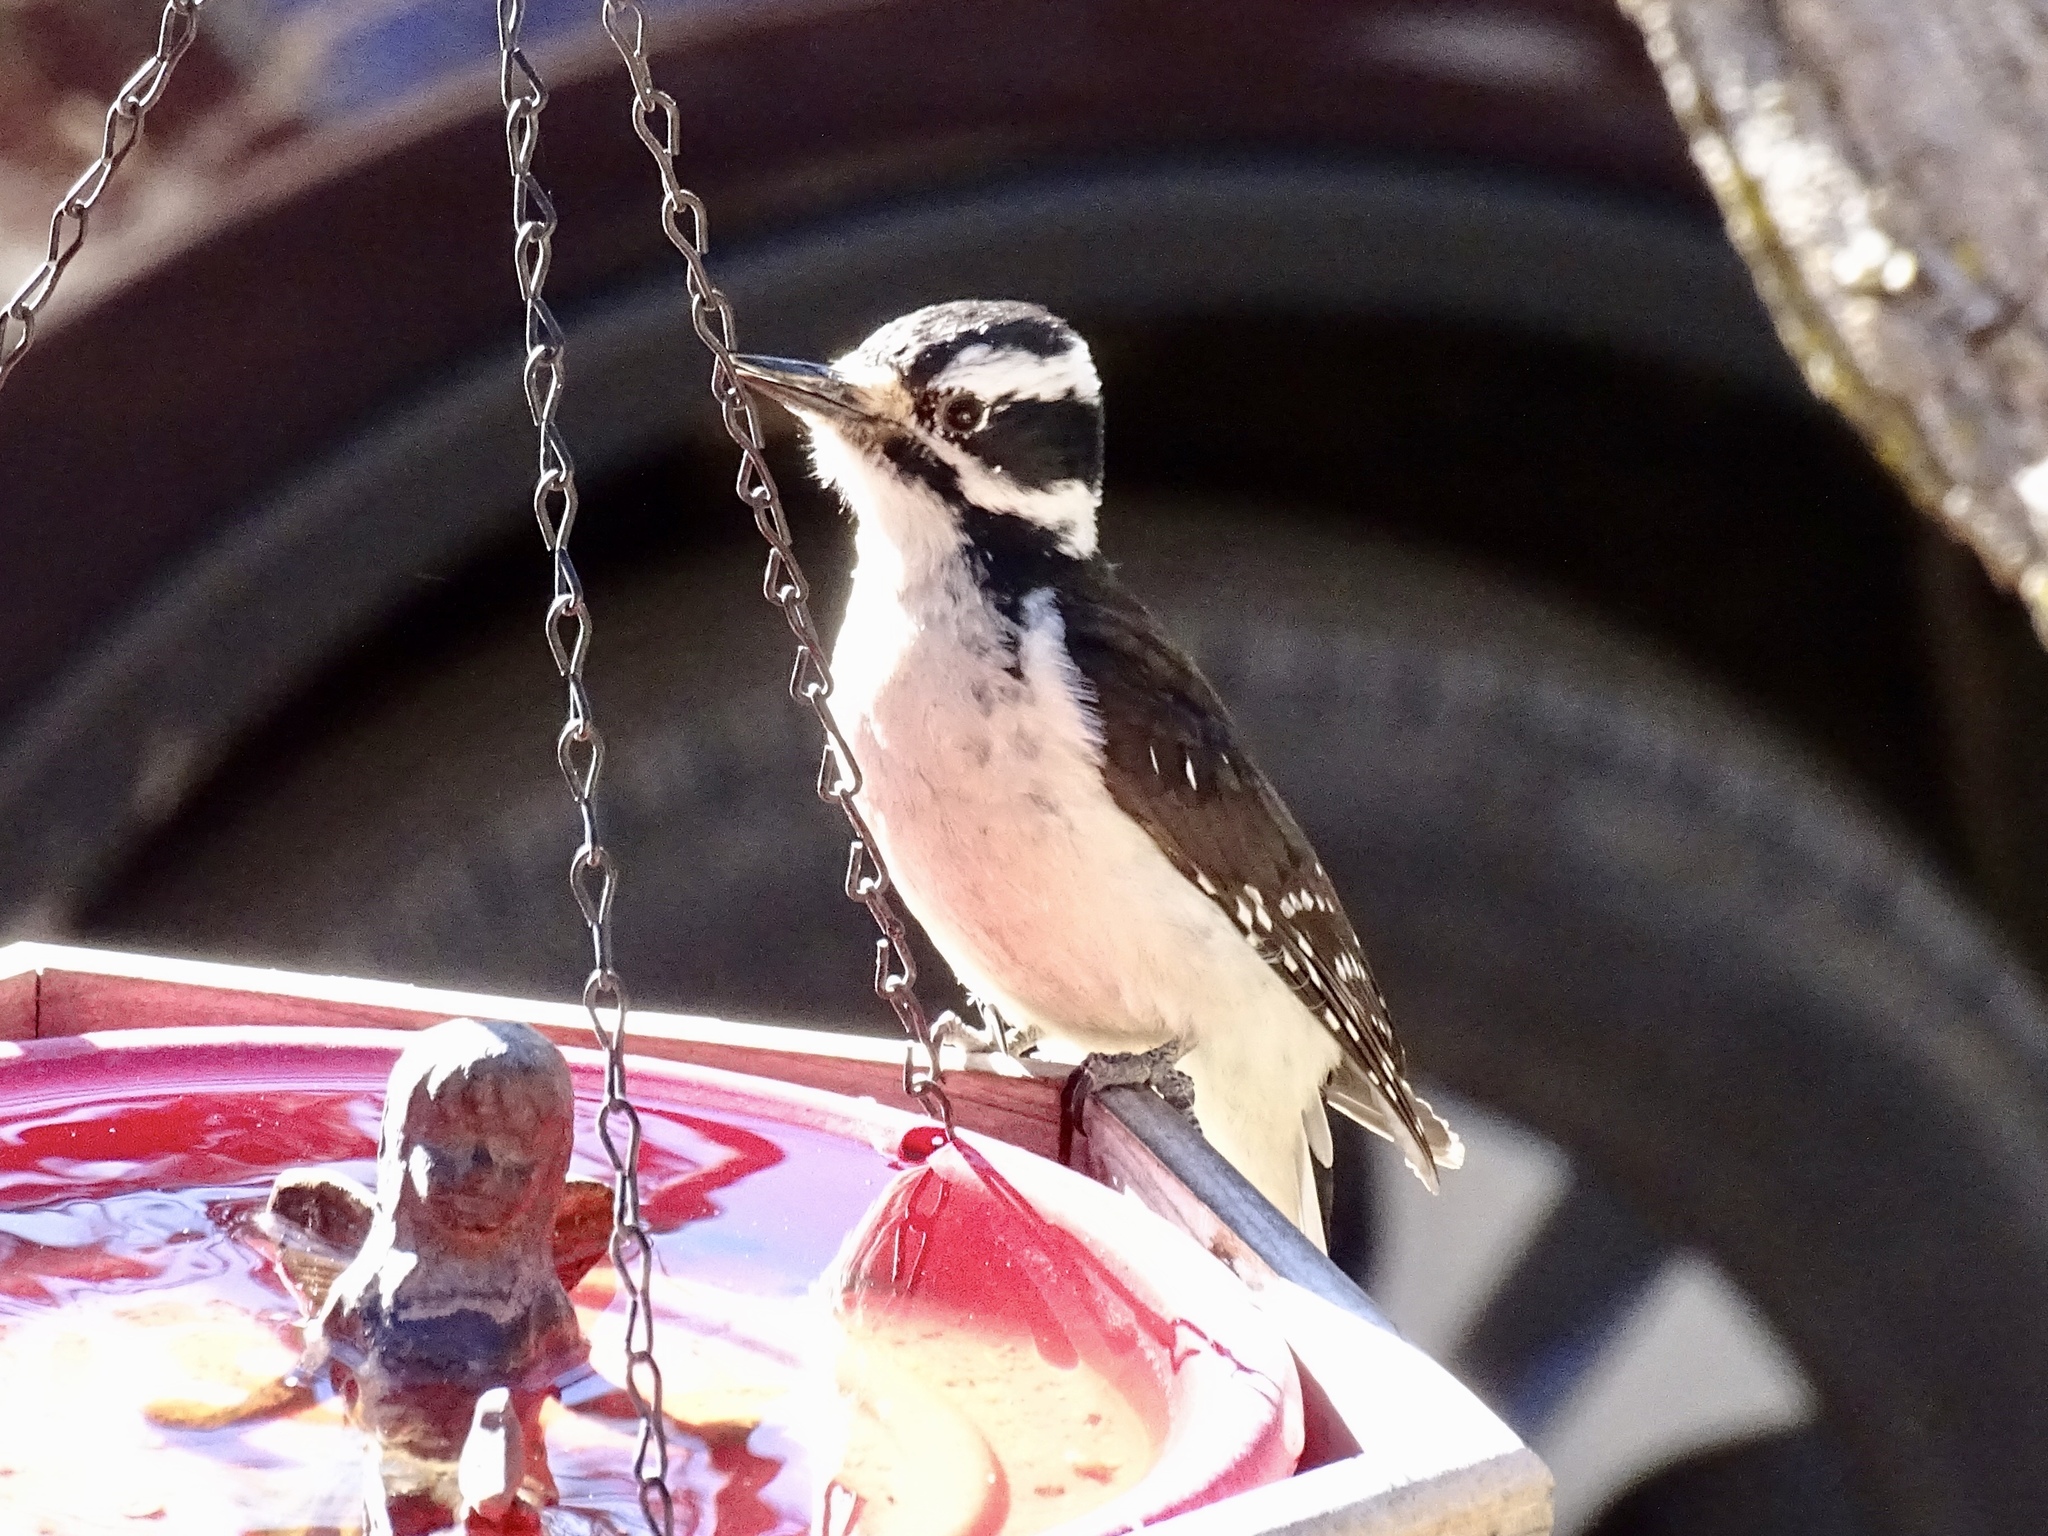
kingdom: Animalia
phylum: Chordata
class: Aves
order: Piciformes
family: Picidae
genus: Leuconotopicus
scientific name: Leuconotopicus villosus
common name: Hairy woodpecker
